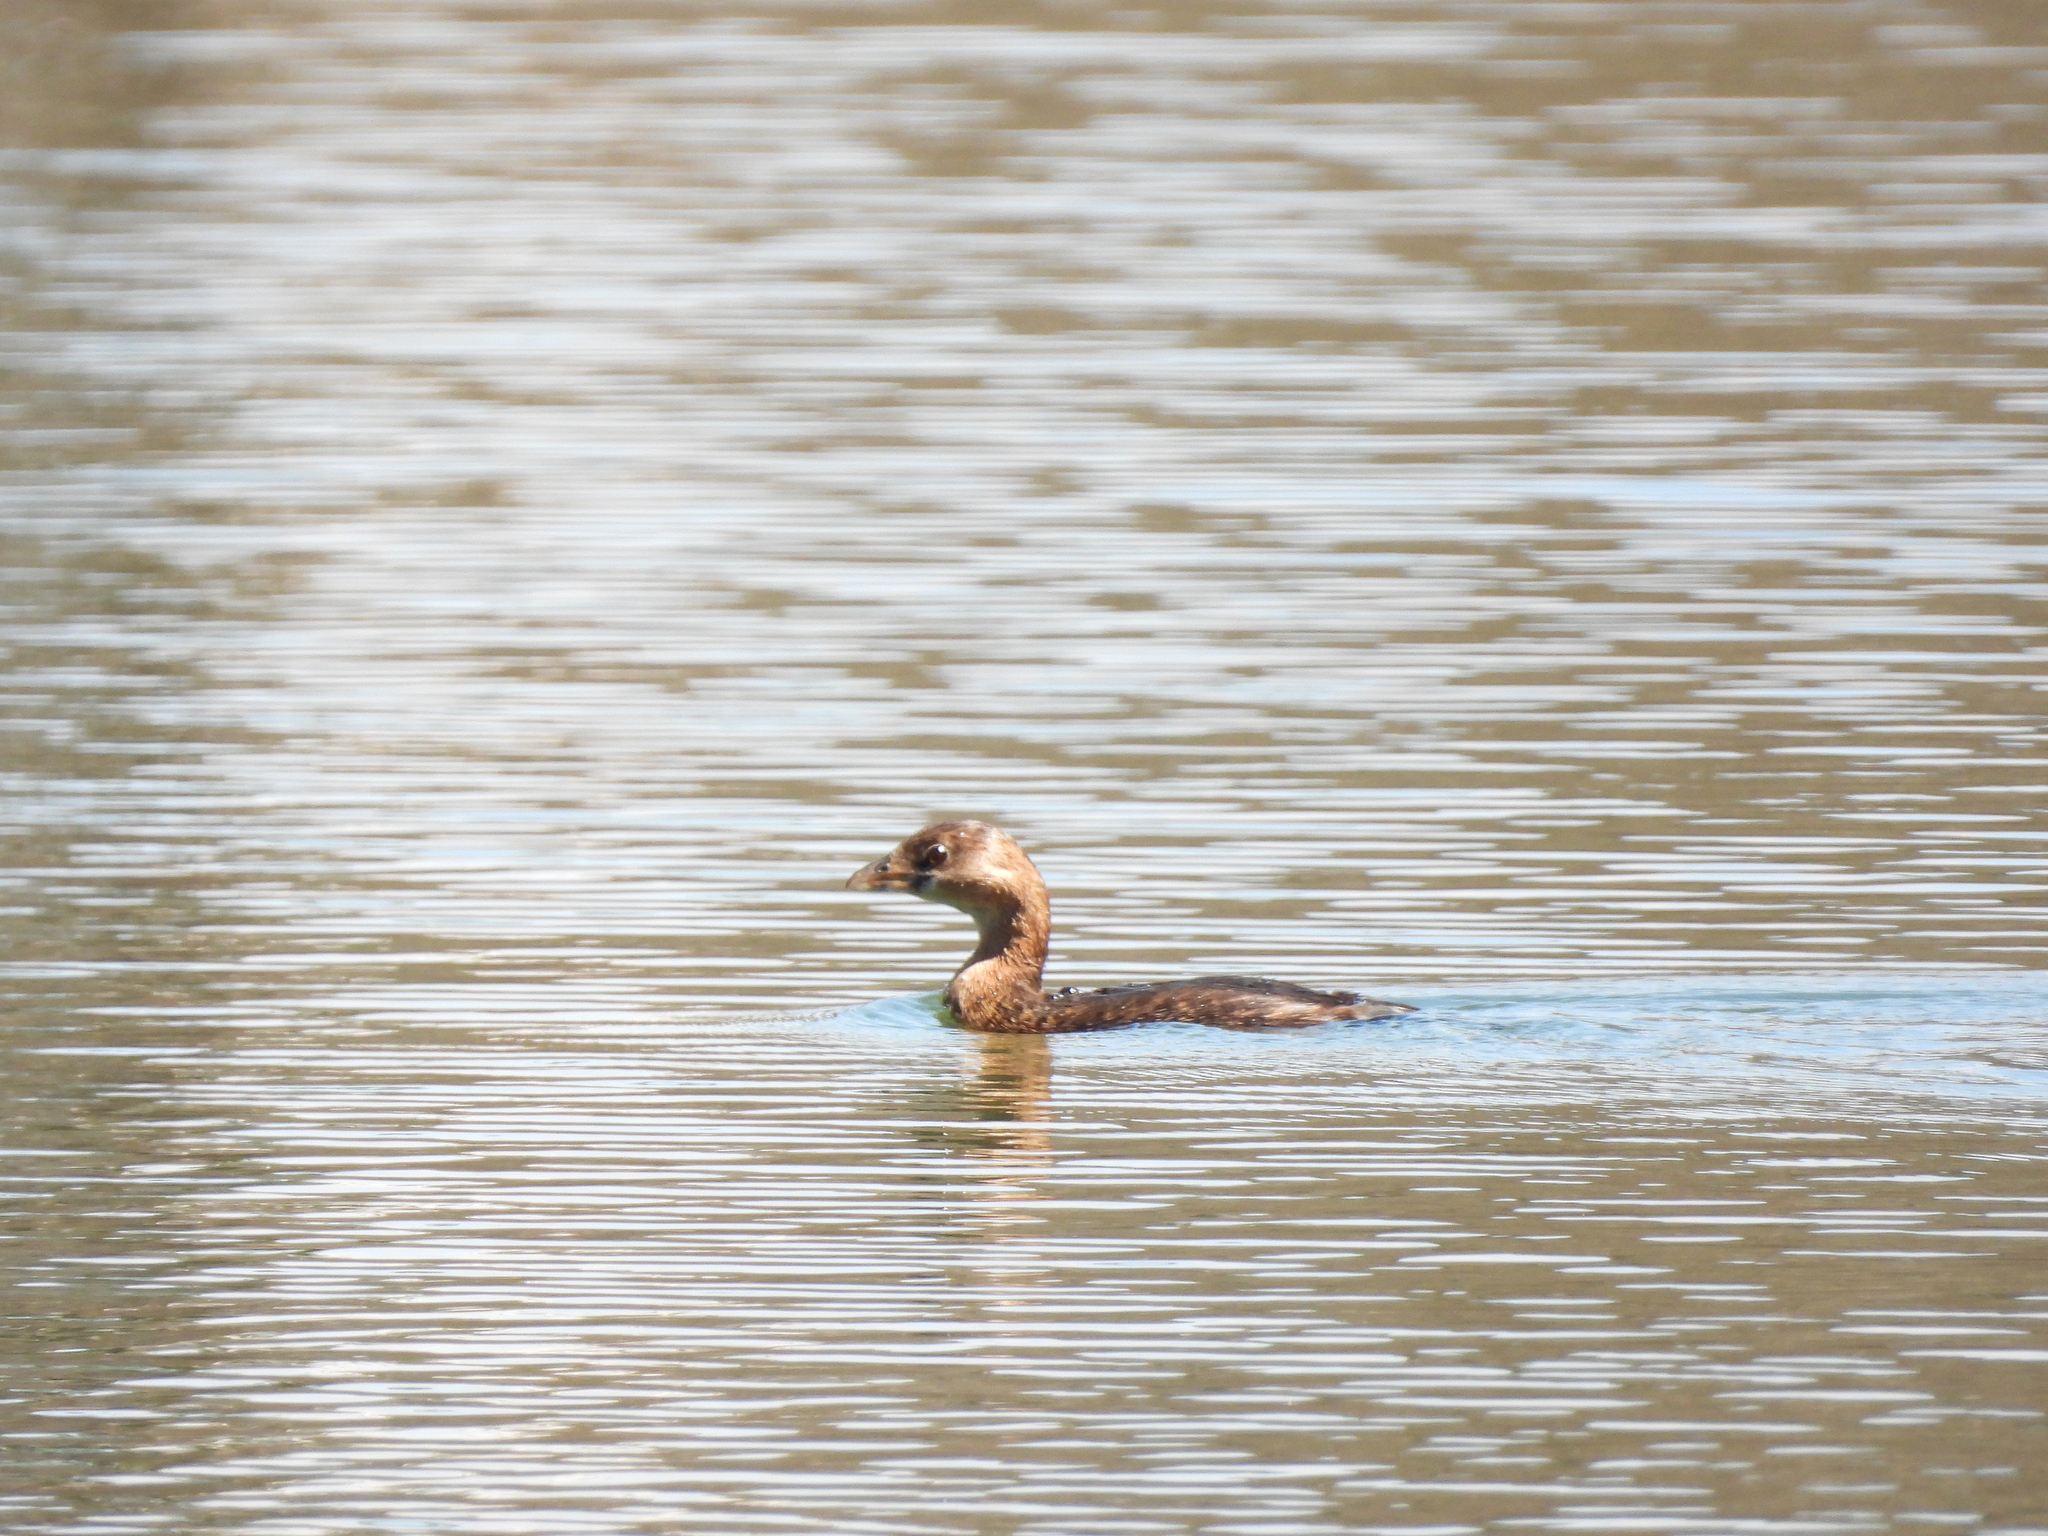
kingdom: Animalia
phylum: Chordata
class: Aves
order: Podicipediformes
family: Podicipedidae
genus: Podilymbus
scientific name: Podilymbus podiceps
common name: Pied-billed grebe
